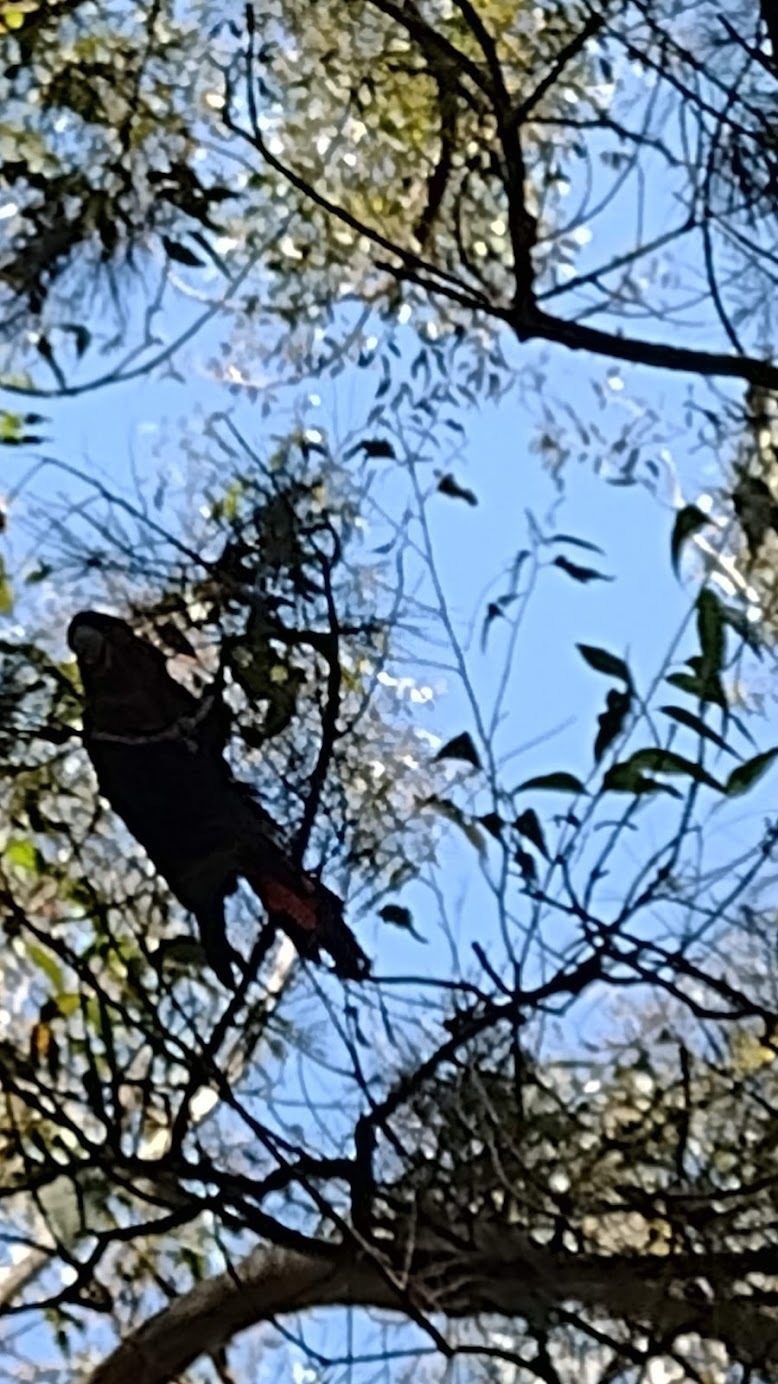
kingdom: Animalia
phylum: Chordata
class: Aves
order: Psittaciformes
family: Psittacidae
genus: Calyptorhynchus
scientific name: Calyptorhynchus lathami
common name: Glossy black cockatoo
